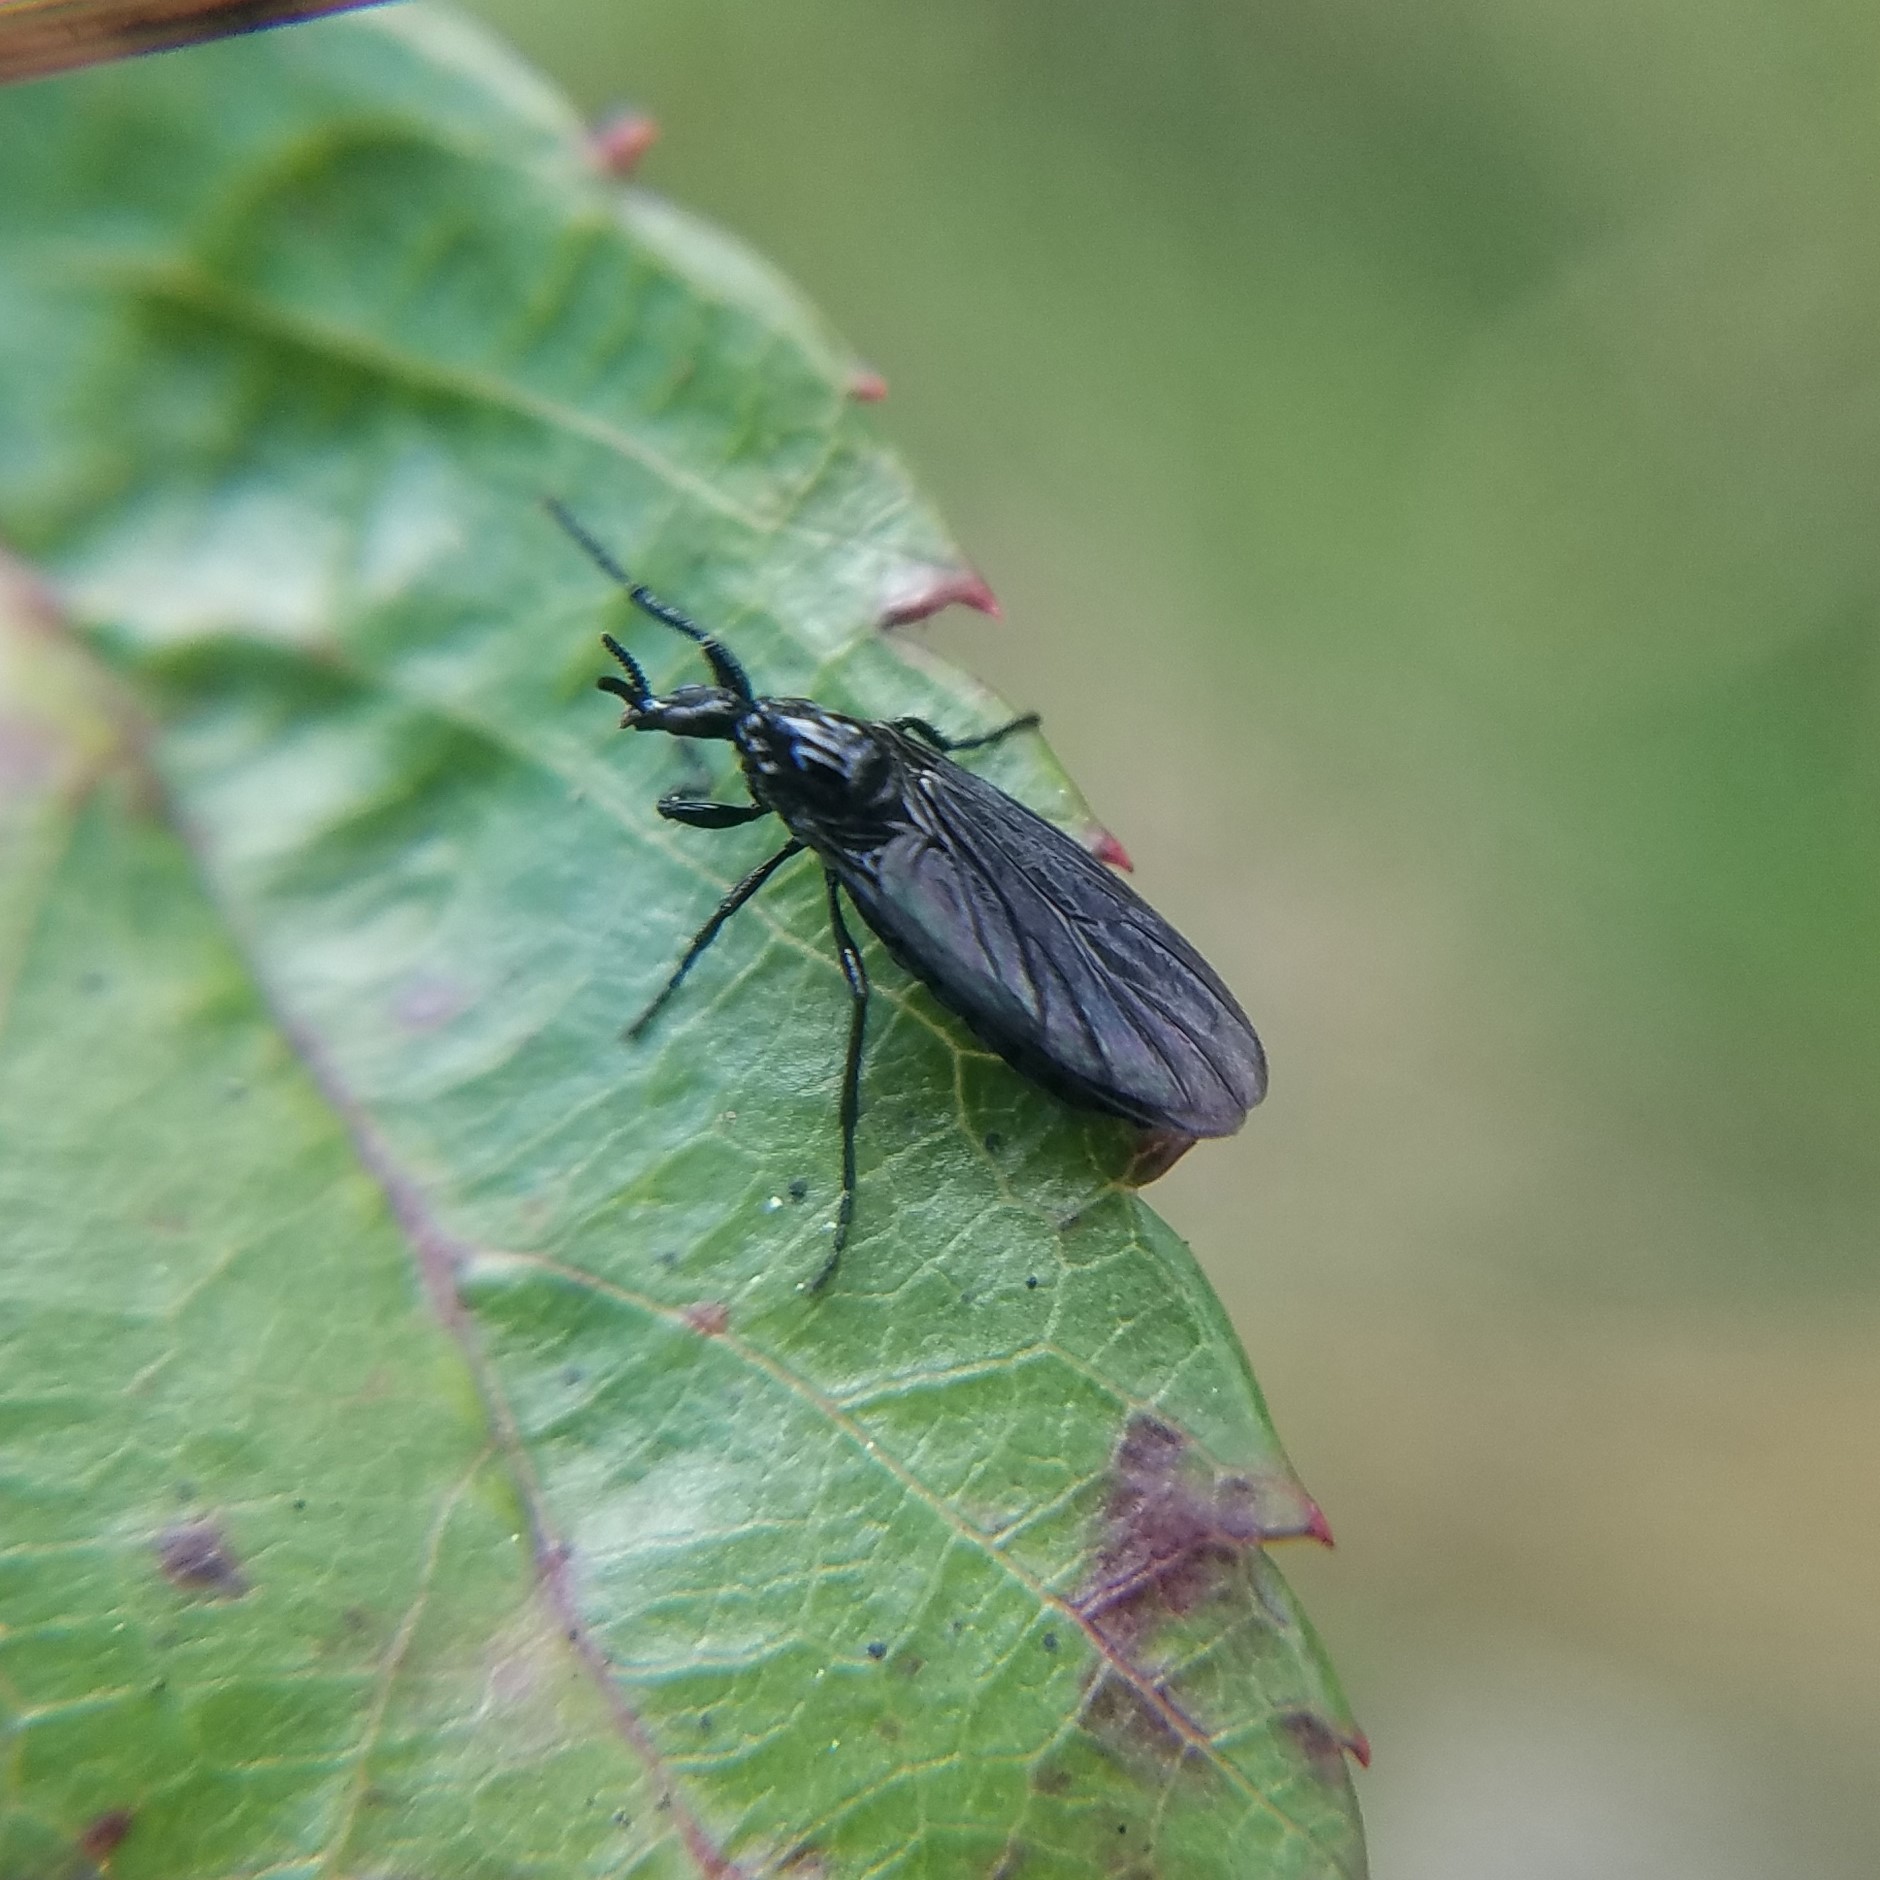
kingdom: Animalia
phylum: Arthropoda
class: Insecta
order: Diptera
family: Bibionidae
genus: Dilophus
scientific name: Dilophus orbatus
